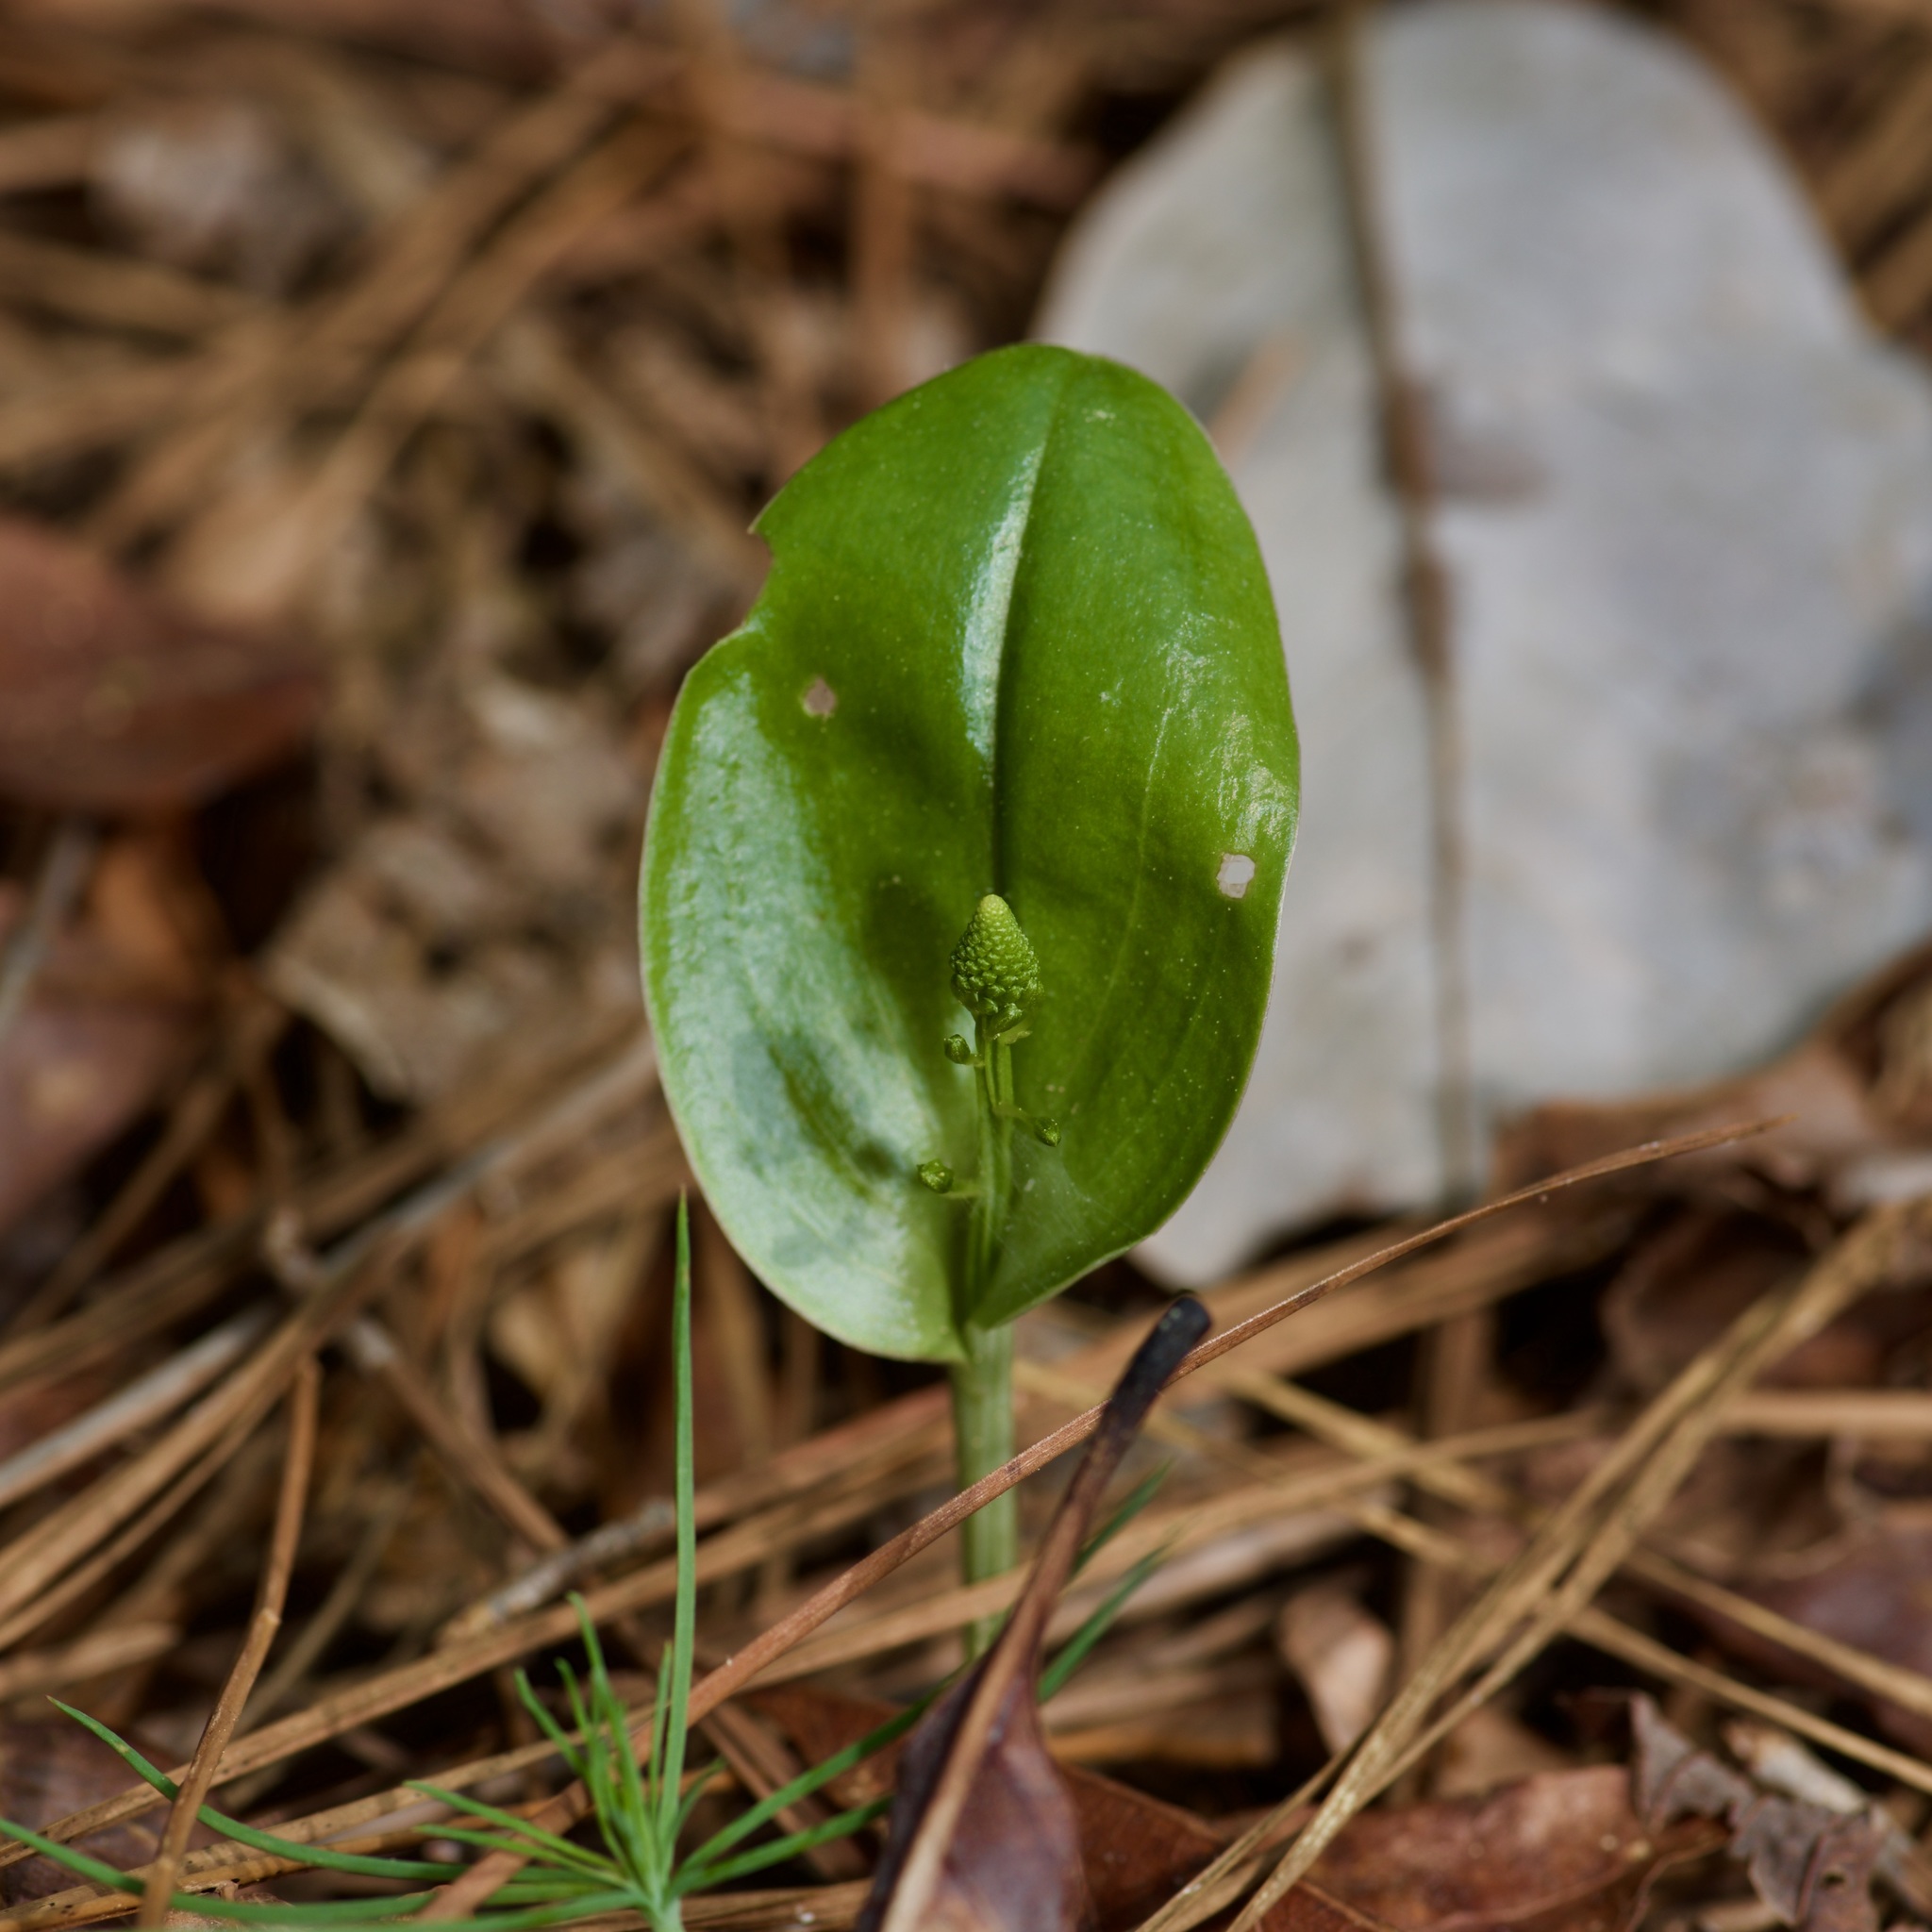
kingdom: Plantae
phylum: Tracheophyta
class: Liliopsida
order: Asparagales
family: Orchidaceae
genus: Malaxis
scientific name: Malaxis unifolia
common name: Green adder's-mouth
